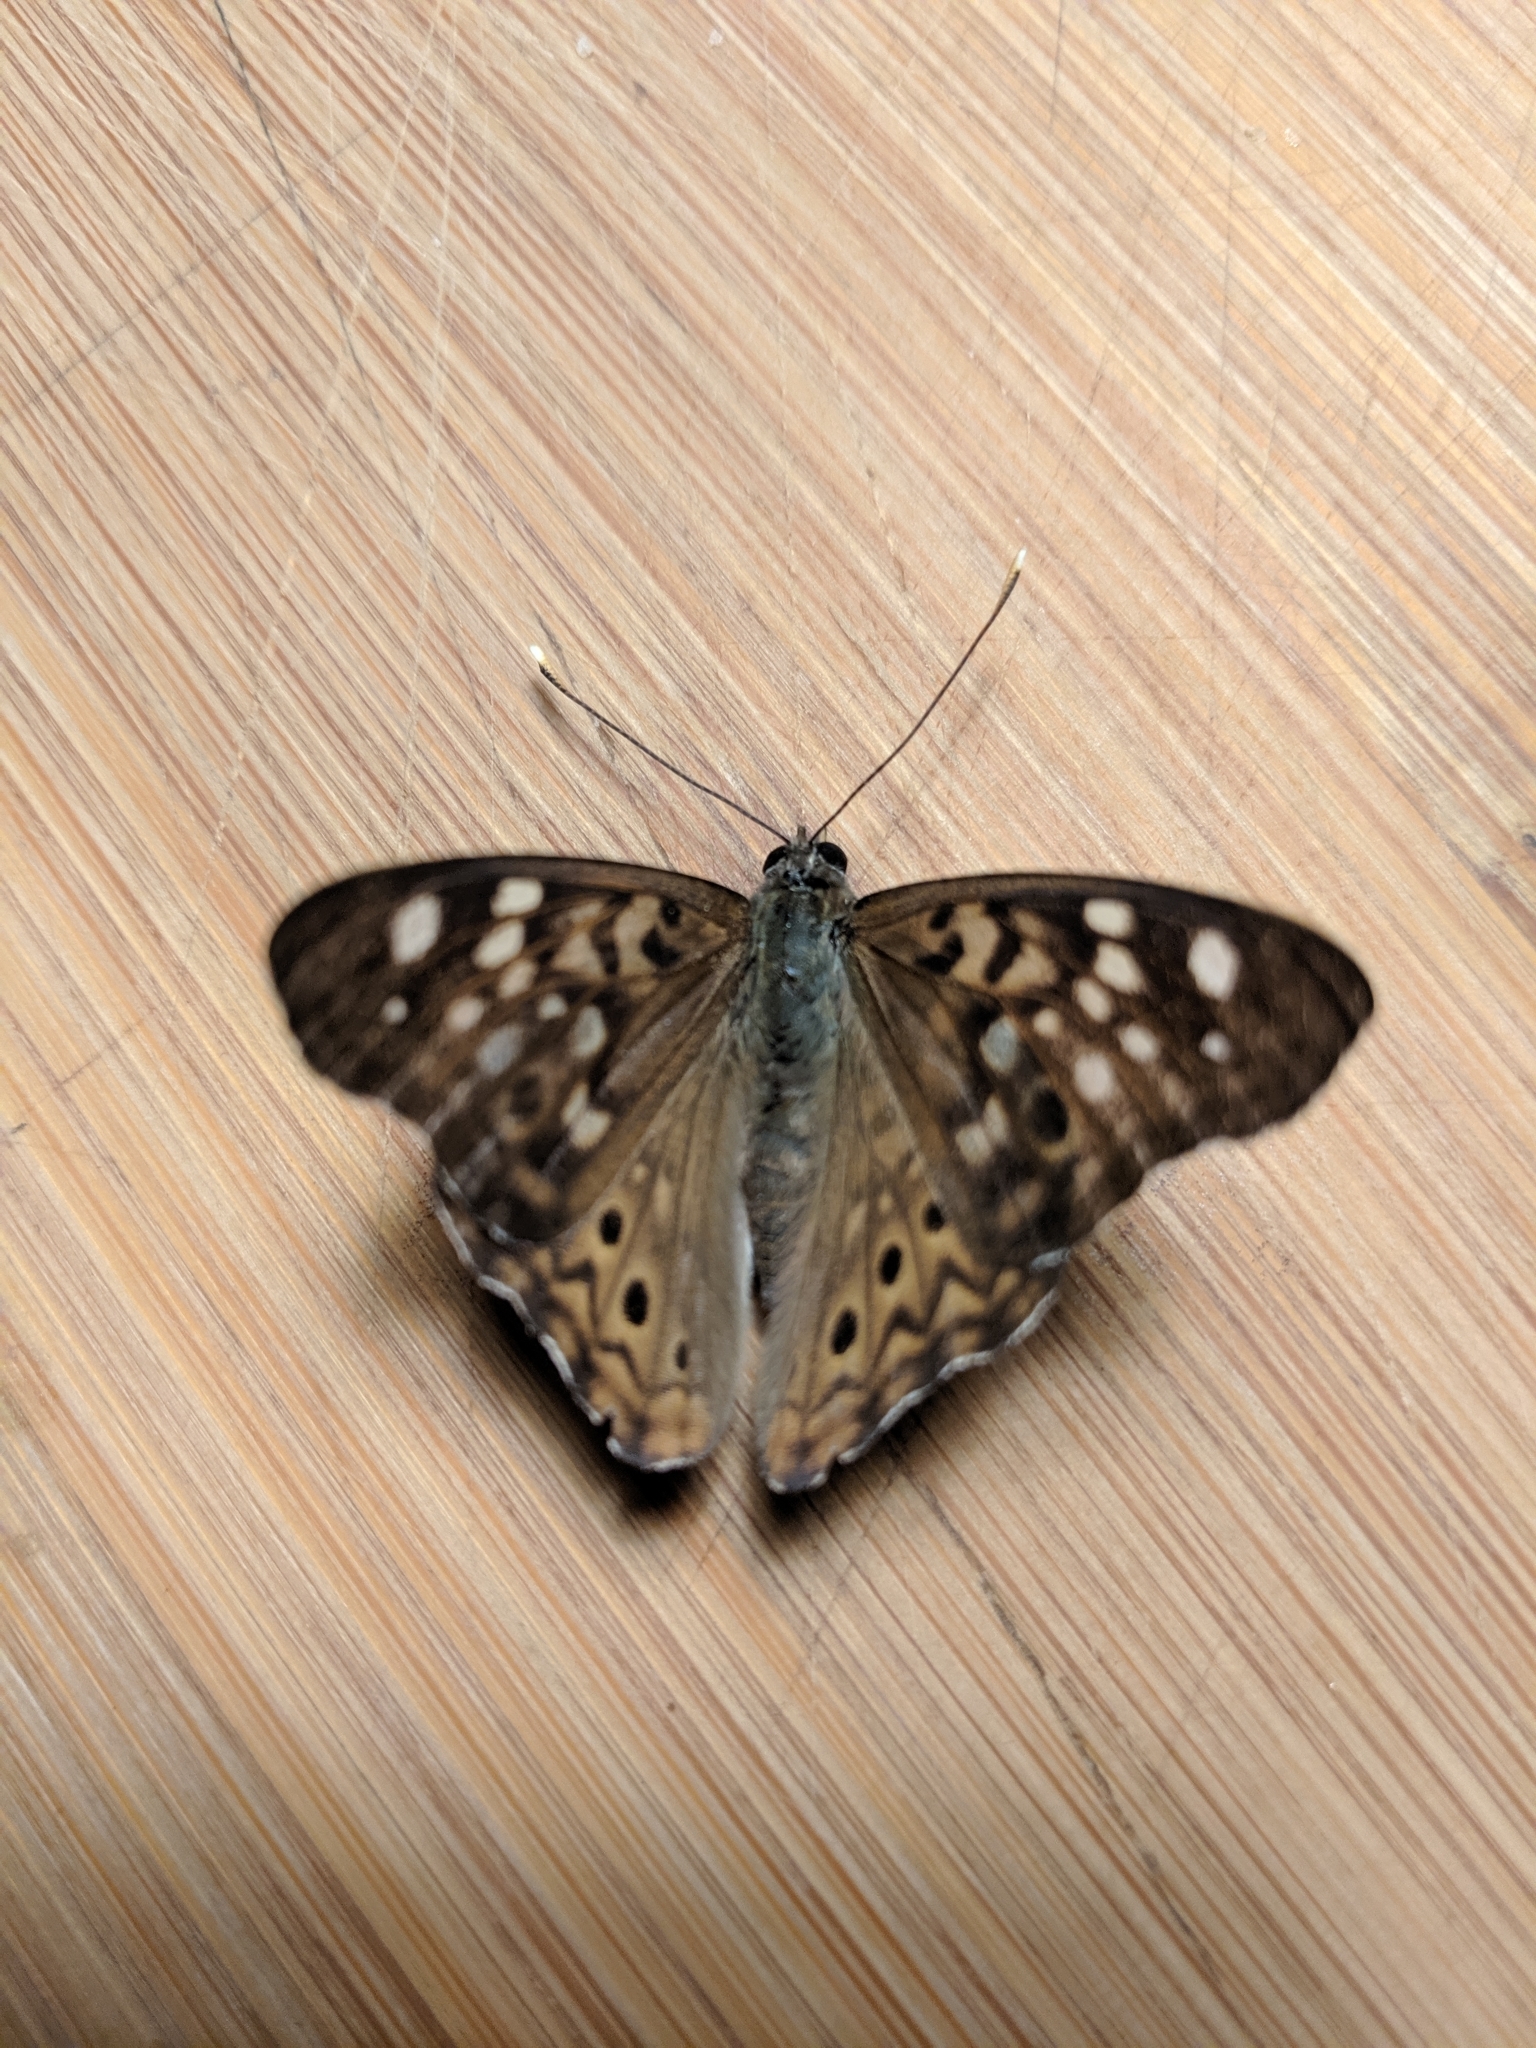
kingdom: Animalia
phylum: Arthropoda
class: Insecta
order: Lepidoptera
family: Nymphalidae
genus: Asterocampa
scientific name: Asterocampa celtis
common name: Hackberry emperor
